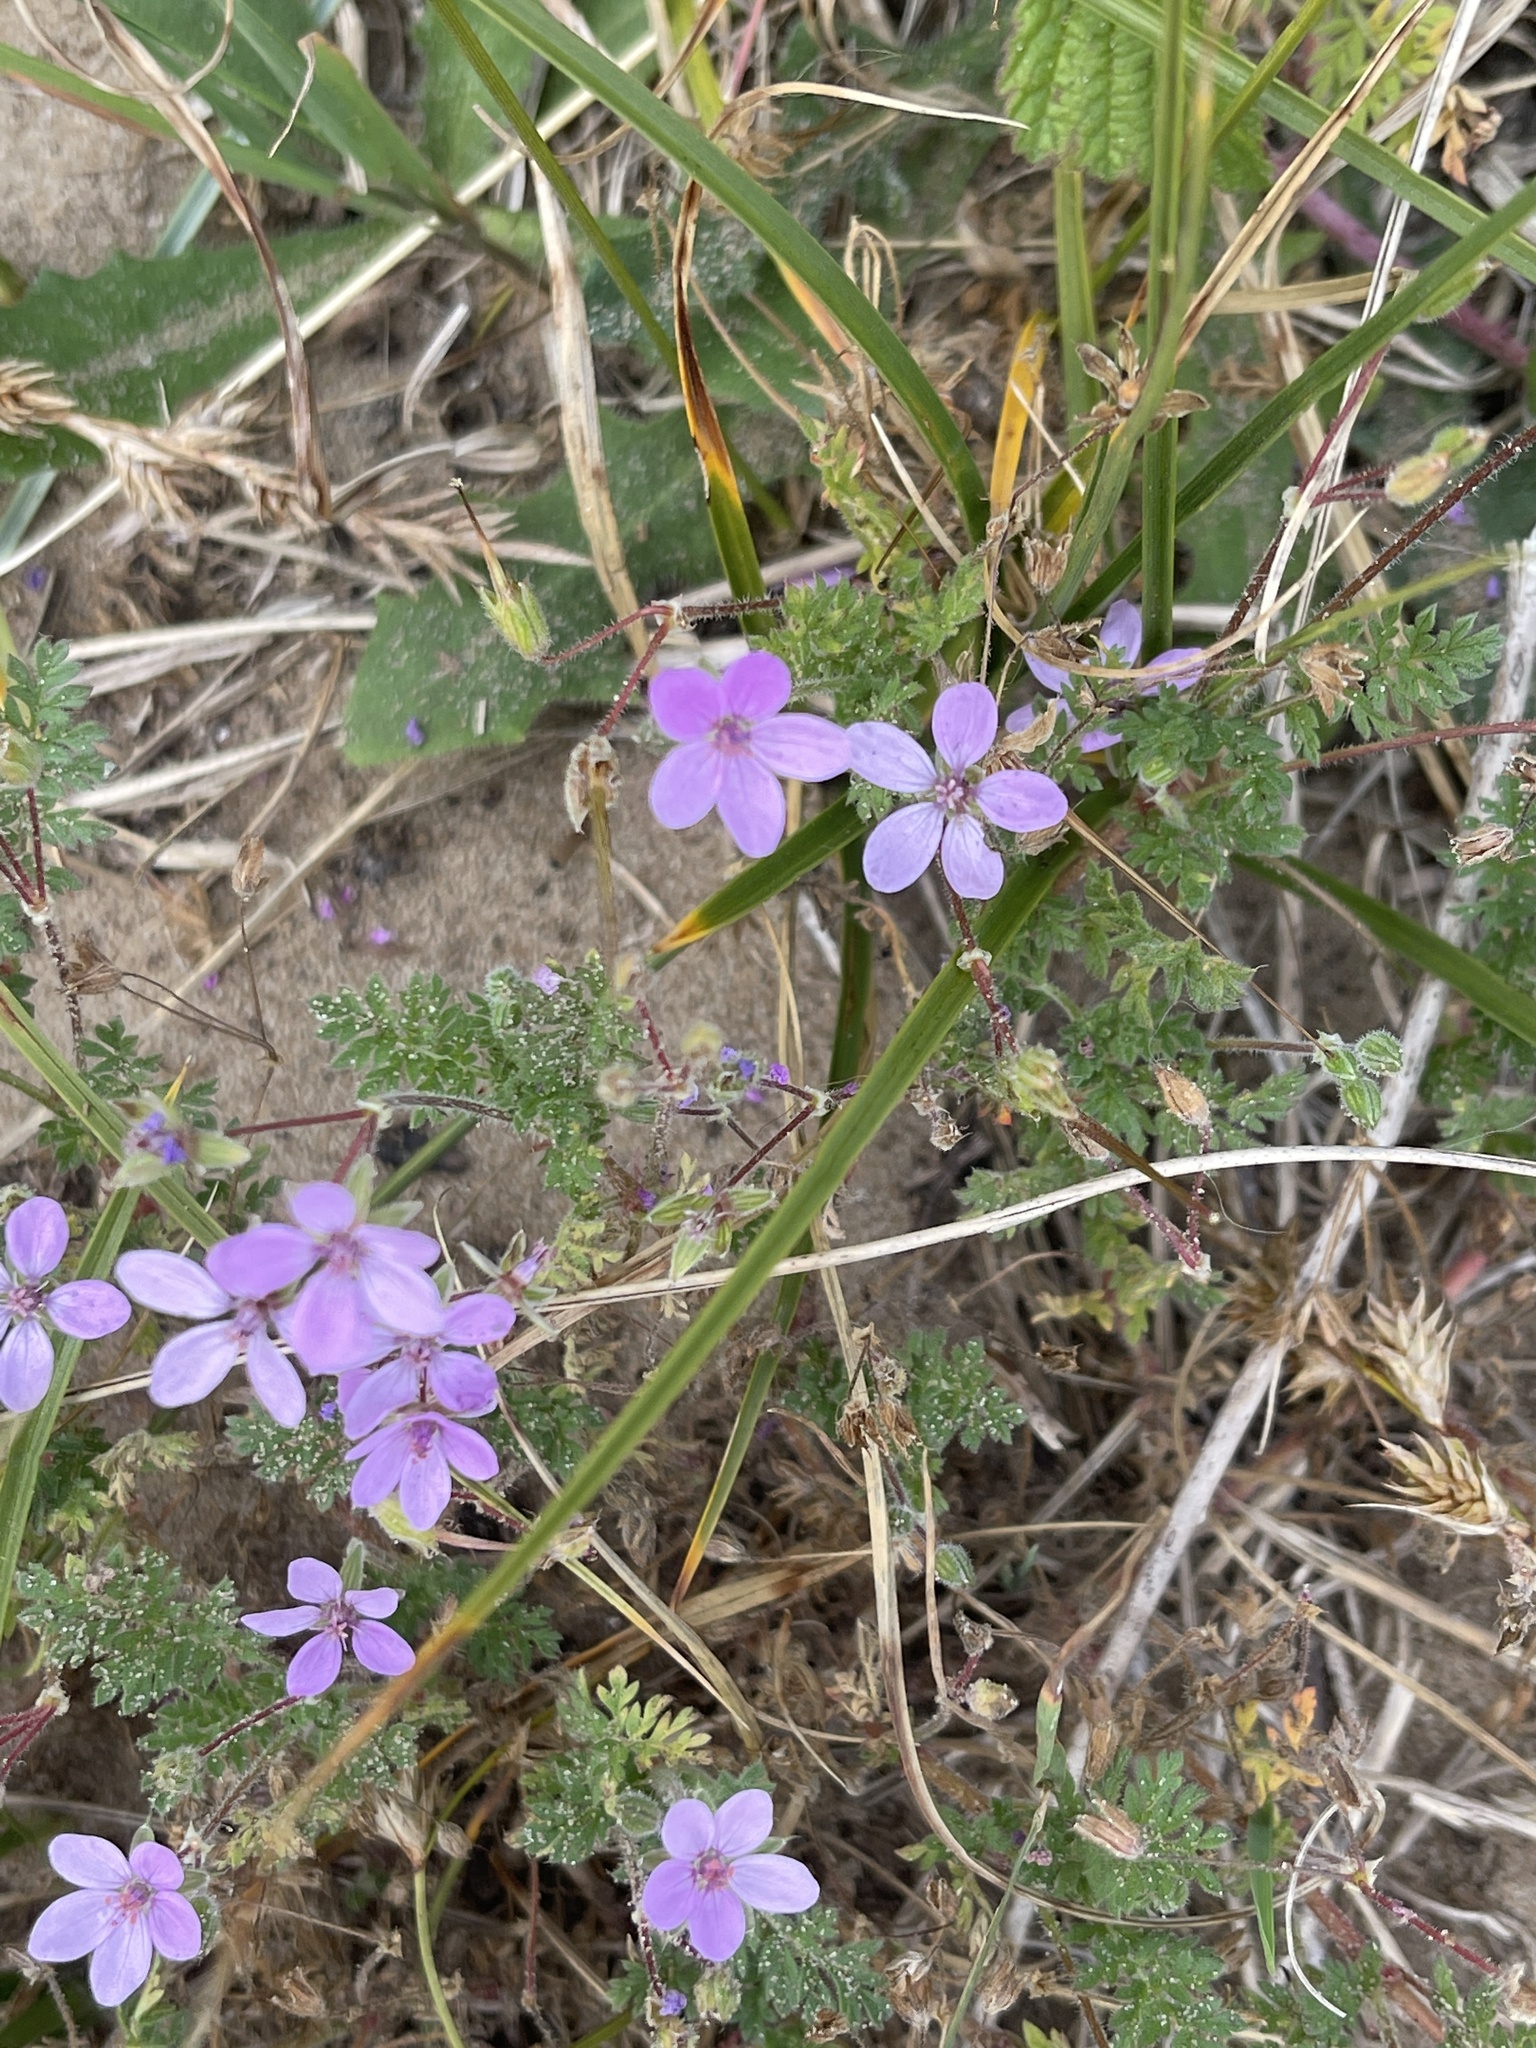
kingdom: Plantae
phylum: Tracheophyta
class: Magnoliopsida
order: Geraniales
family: Geraniaceae
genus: Erodium
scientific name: Erodium cicutarium
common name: Common stork's-bill
